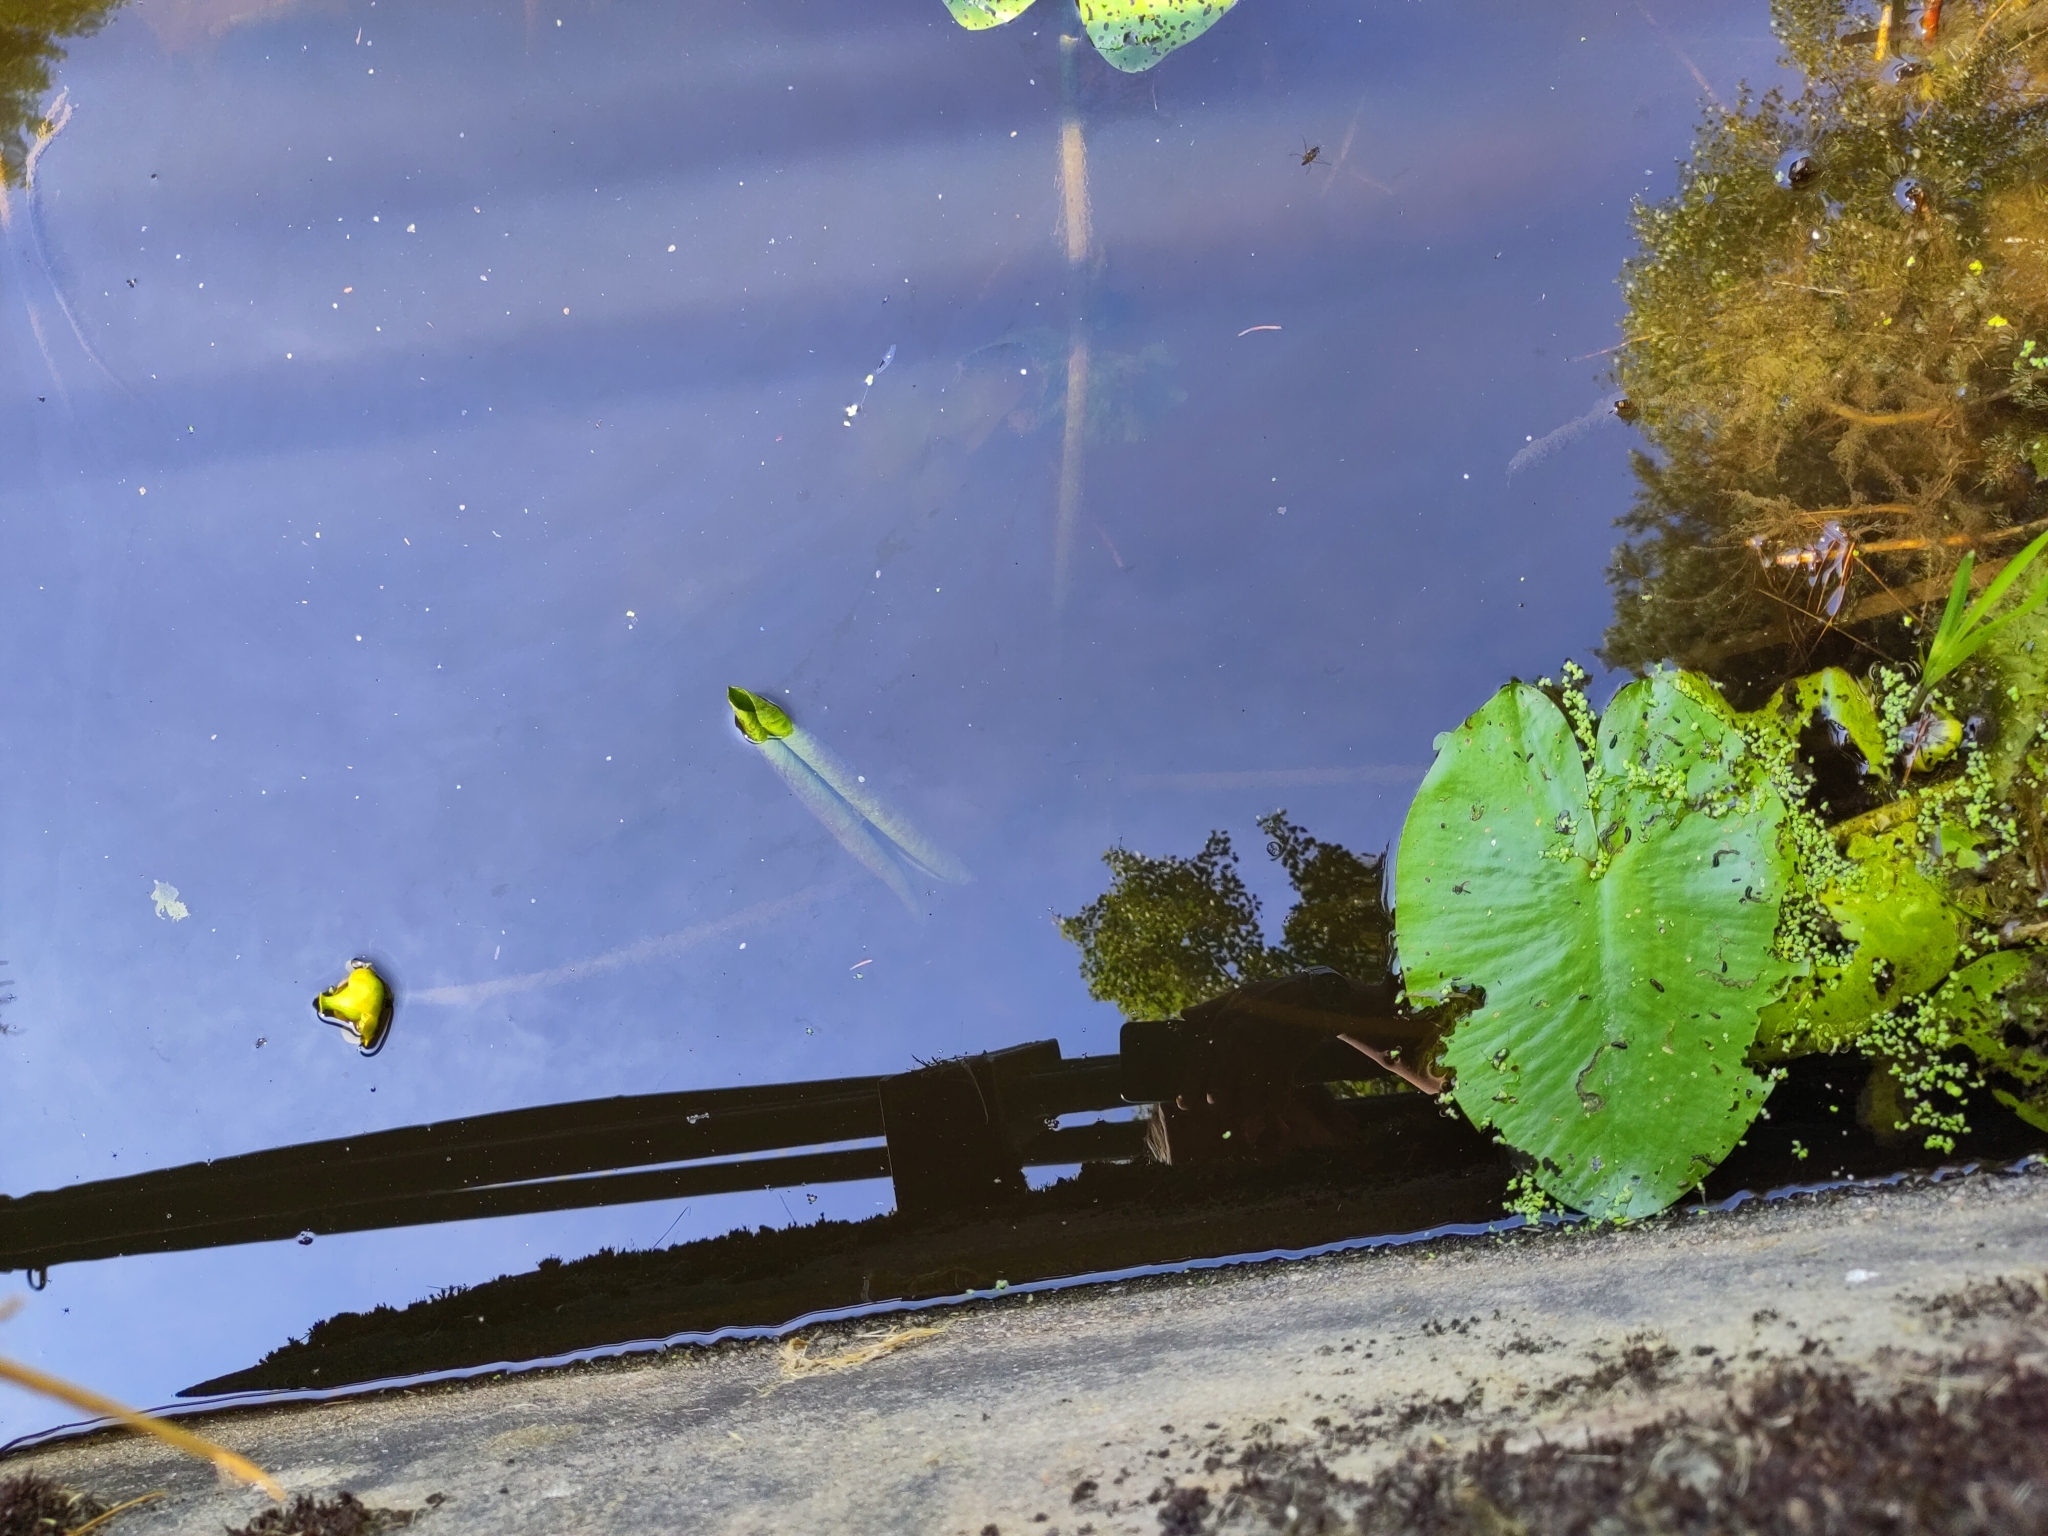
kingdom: Plantae
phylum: Tracheophyta
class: Magnoliopsida
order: Nymphaeales
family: Nymphaeaceae
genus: Nuphar
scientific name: Nuphar lutea
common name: Yellow water-lily
